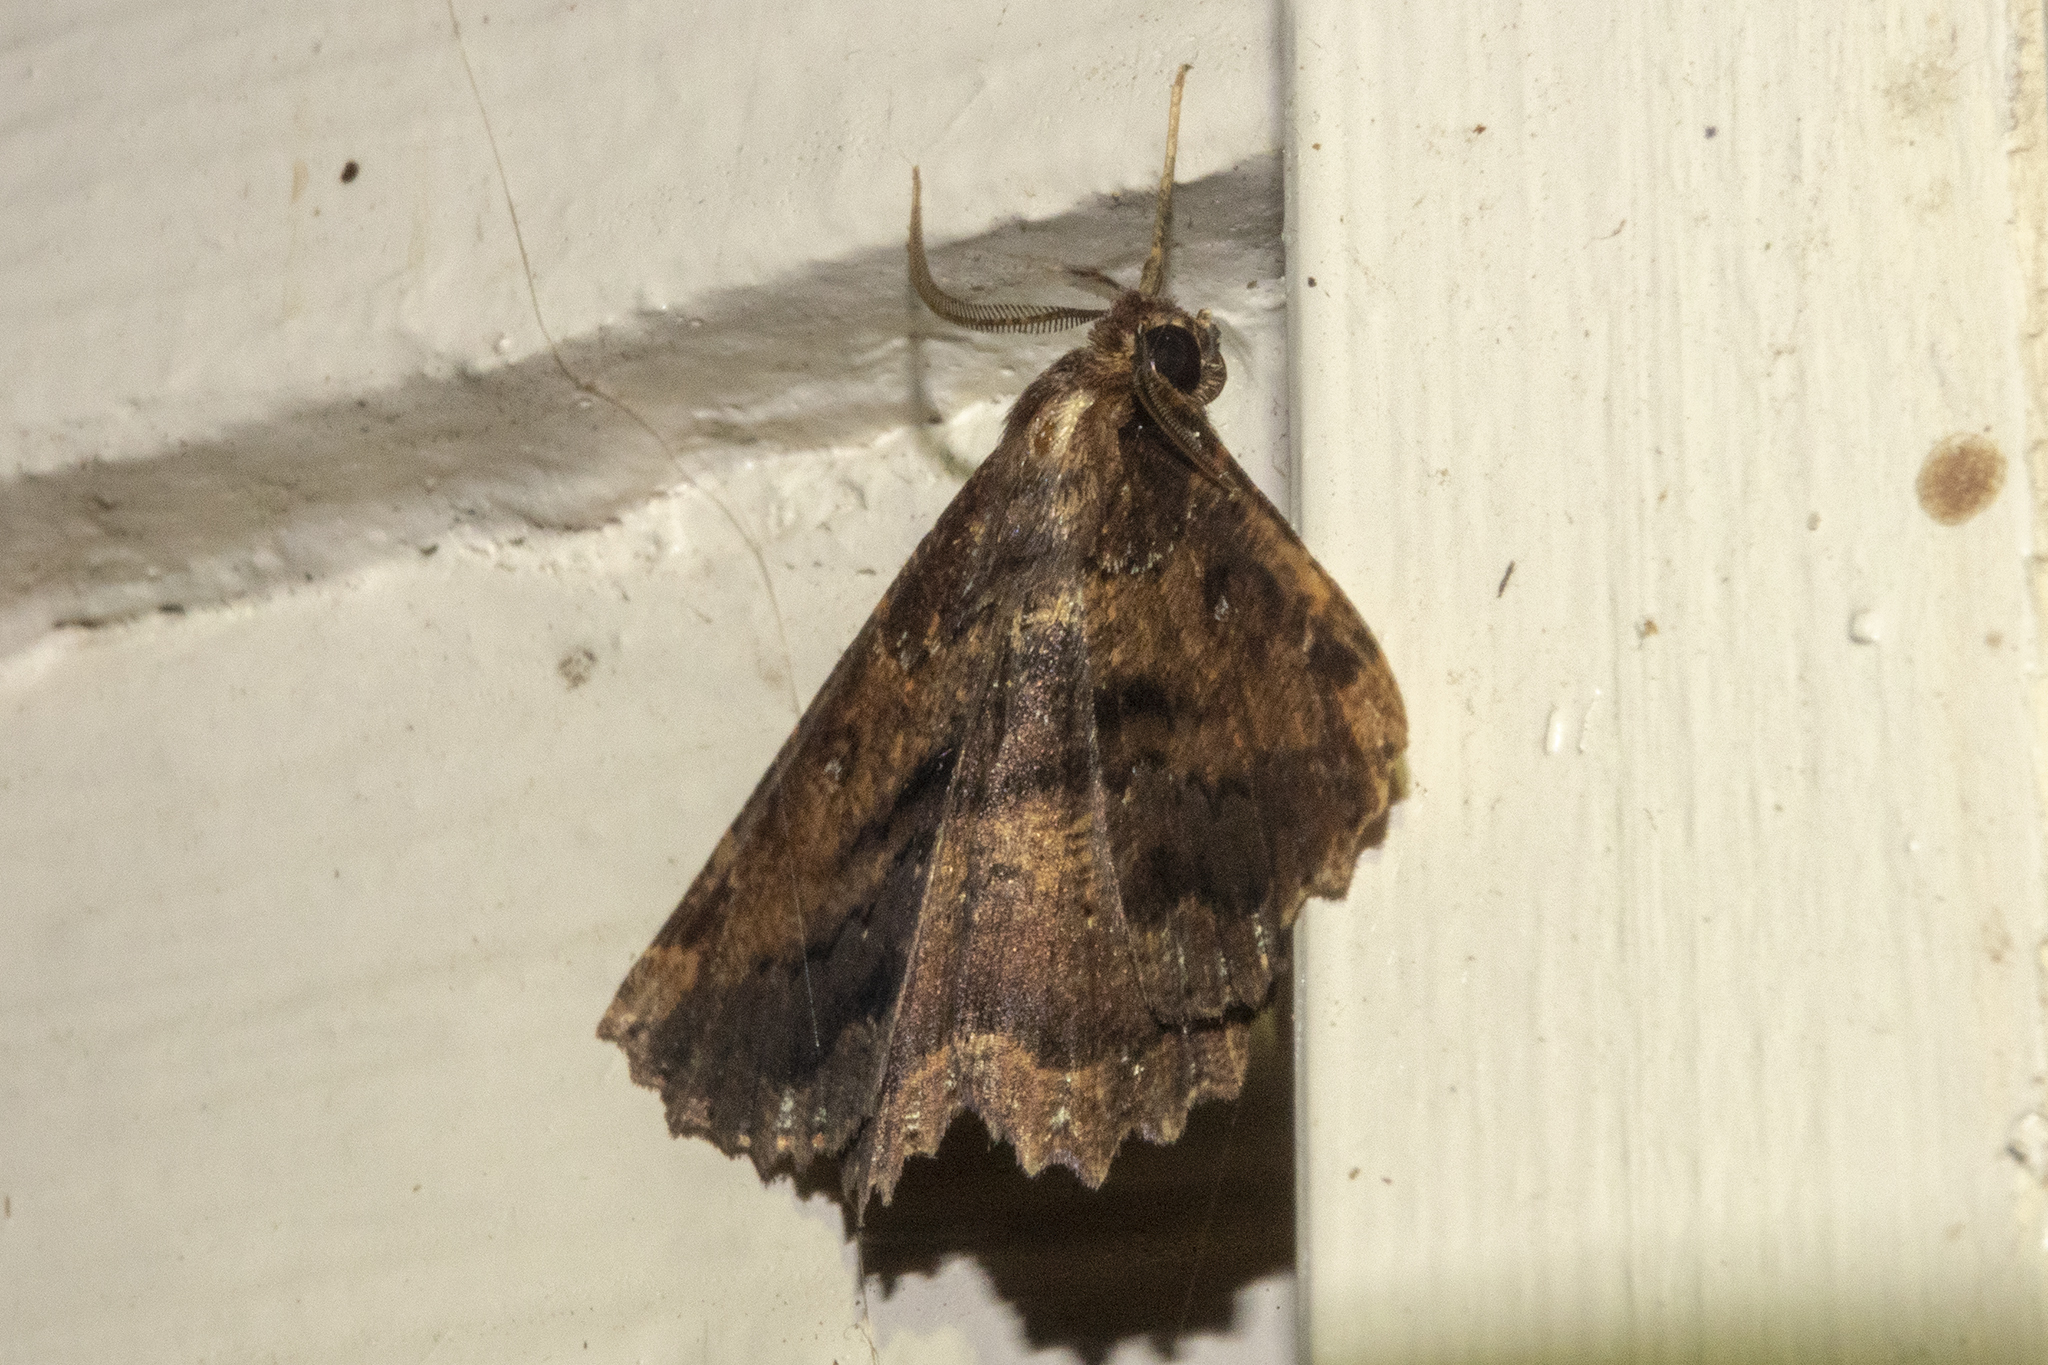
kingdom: Animalia
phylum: Arthropoda
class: Insecta
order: Lepidoptera
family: Geometridae
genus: Gellonia
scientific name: Gellonia dejectaria
